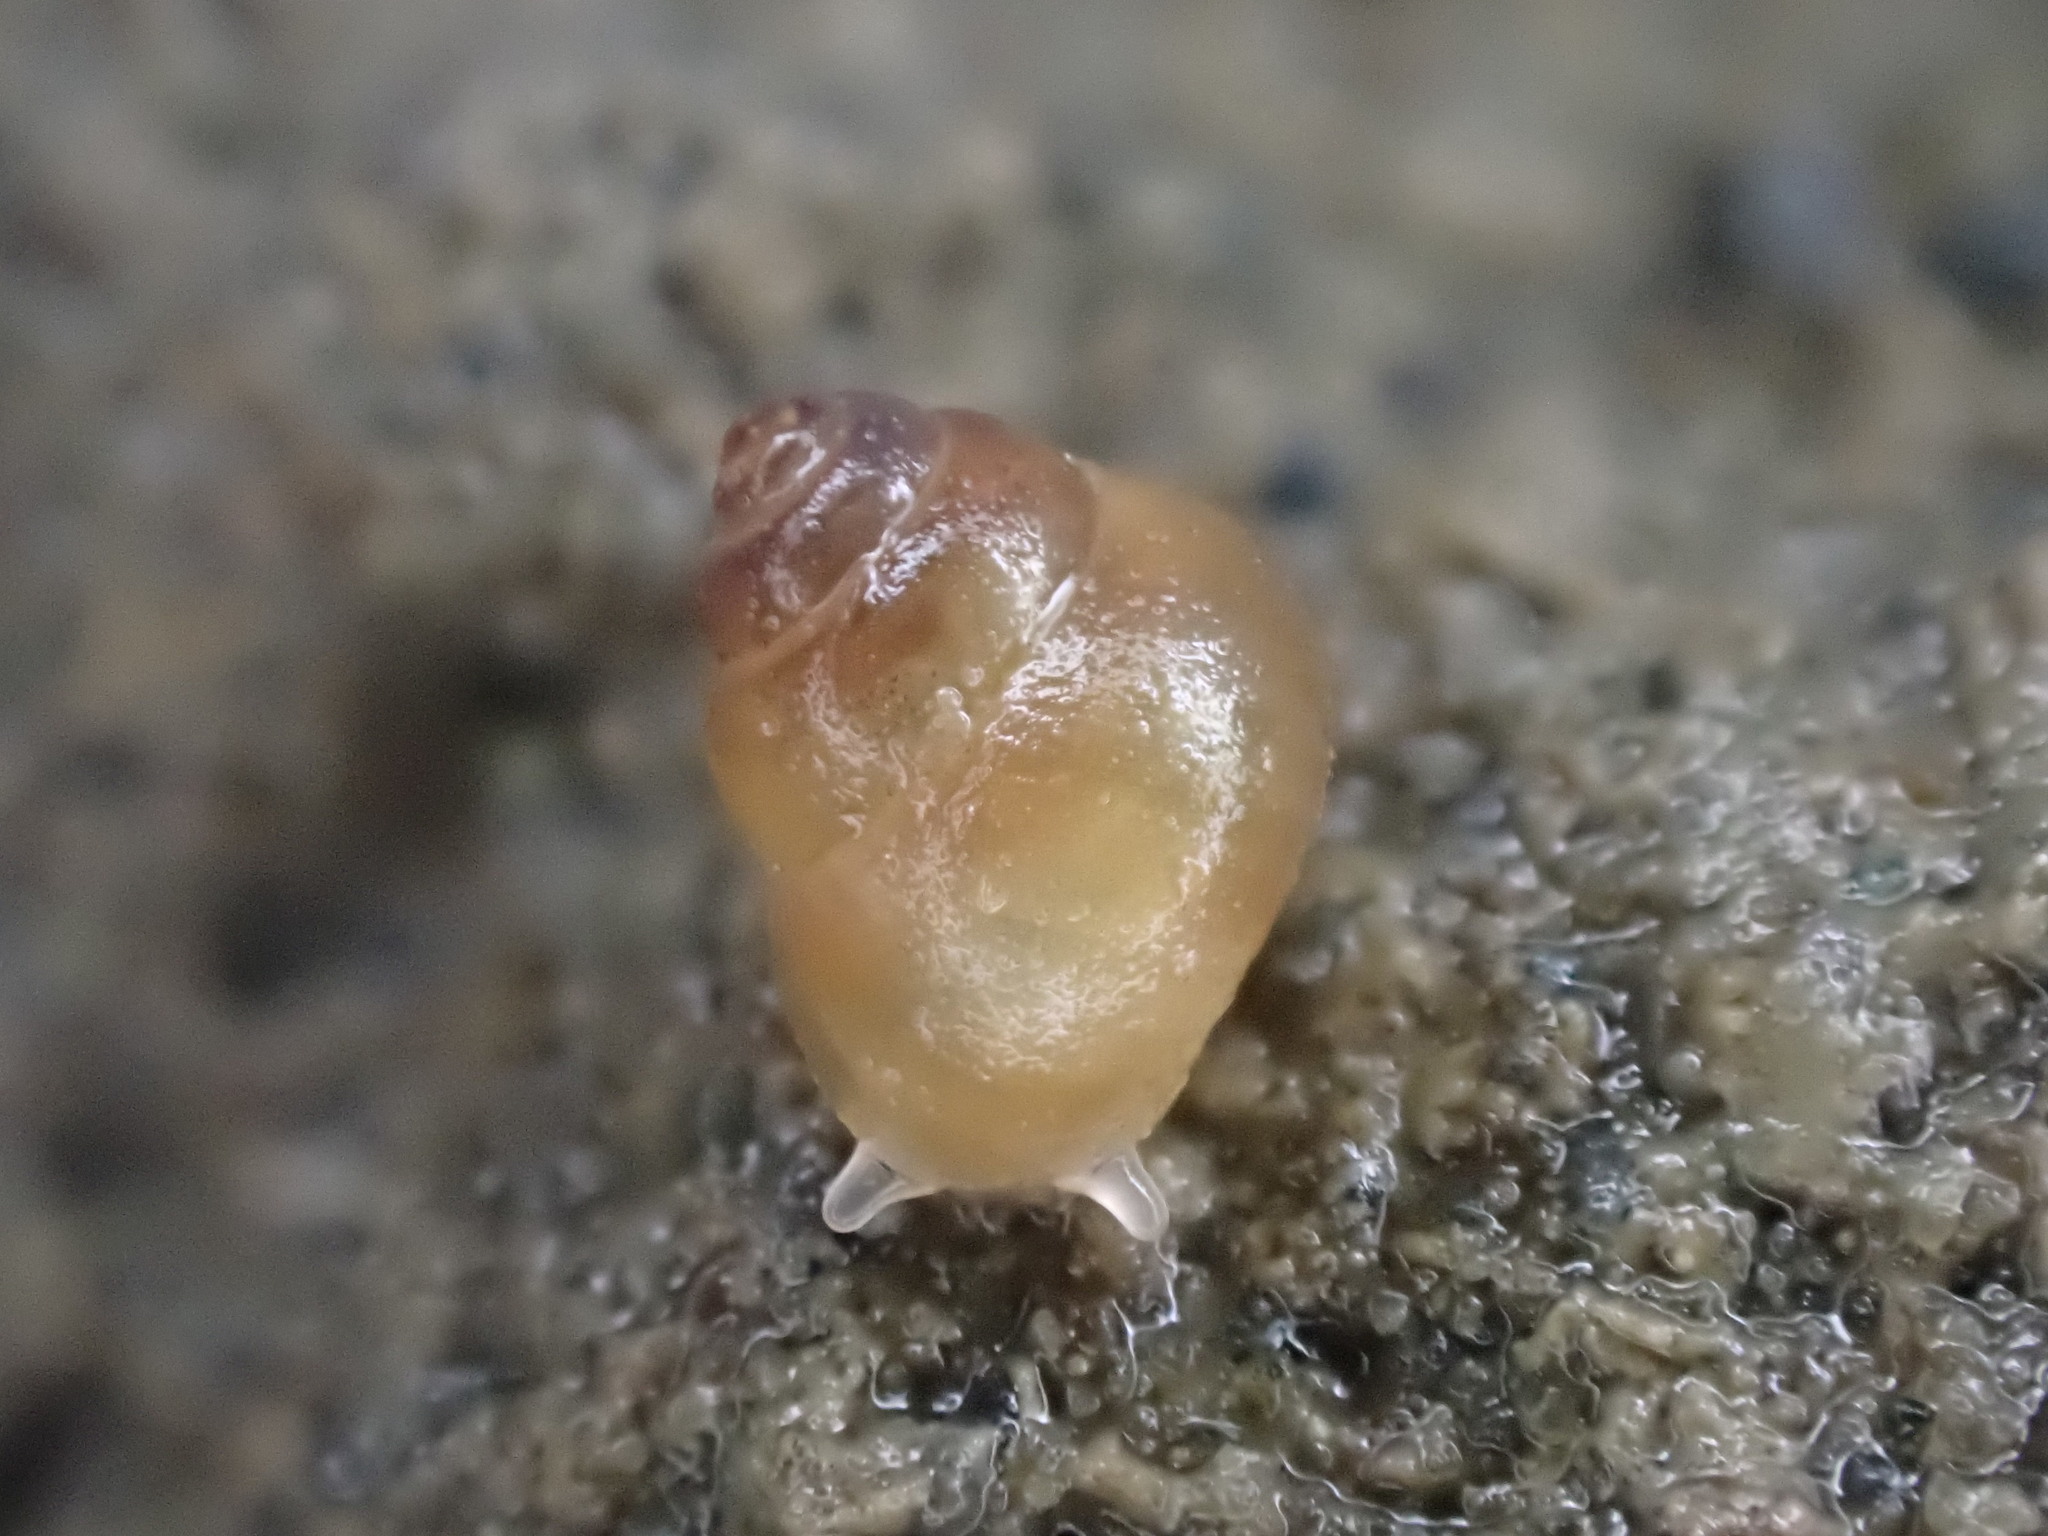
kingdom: Animalia
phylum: Mollusca
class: Gastropoda
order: Littorinimorpha
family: Assimineidae
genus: Suterilla
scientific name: Suterilla neozelanica
